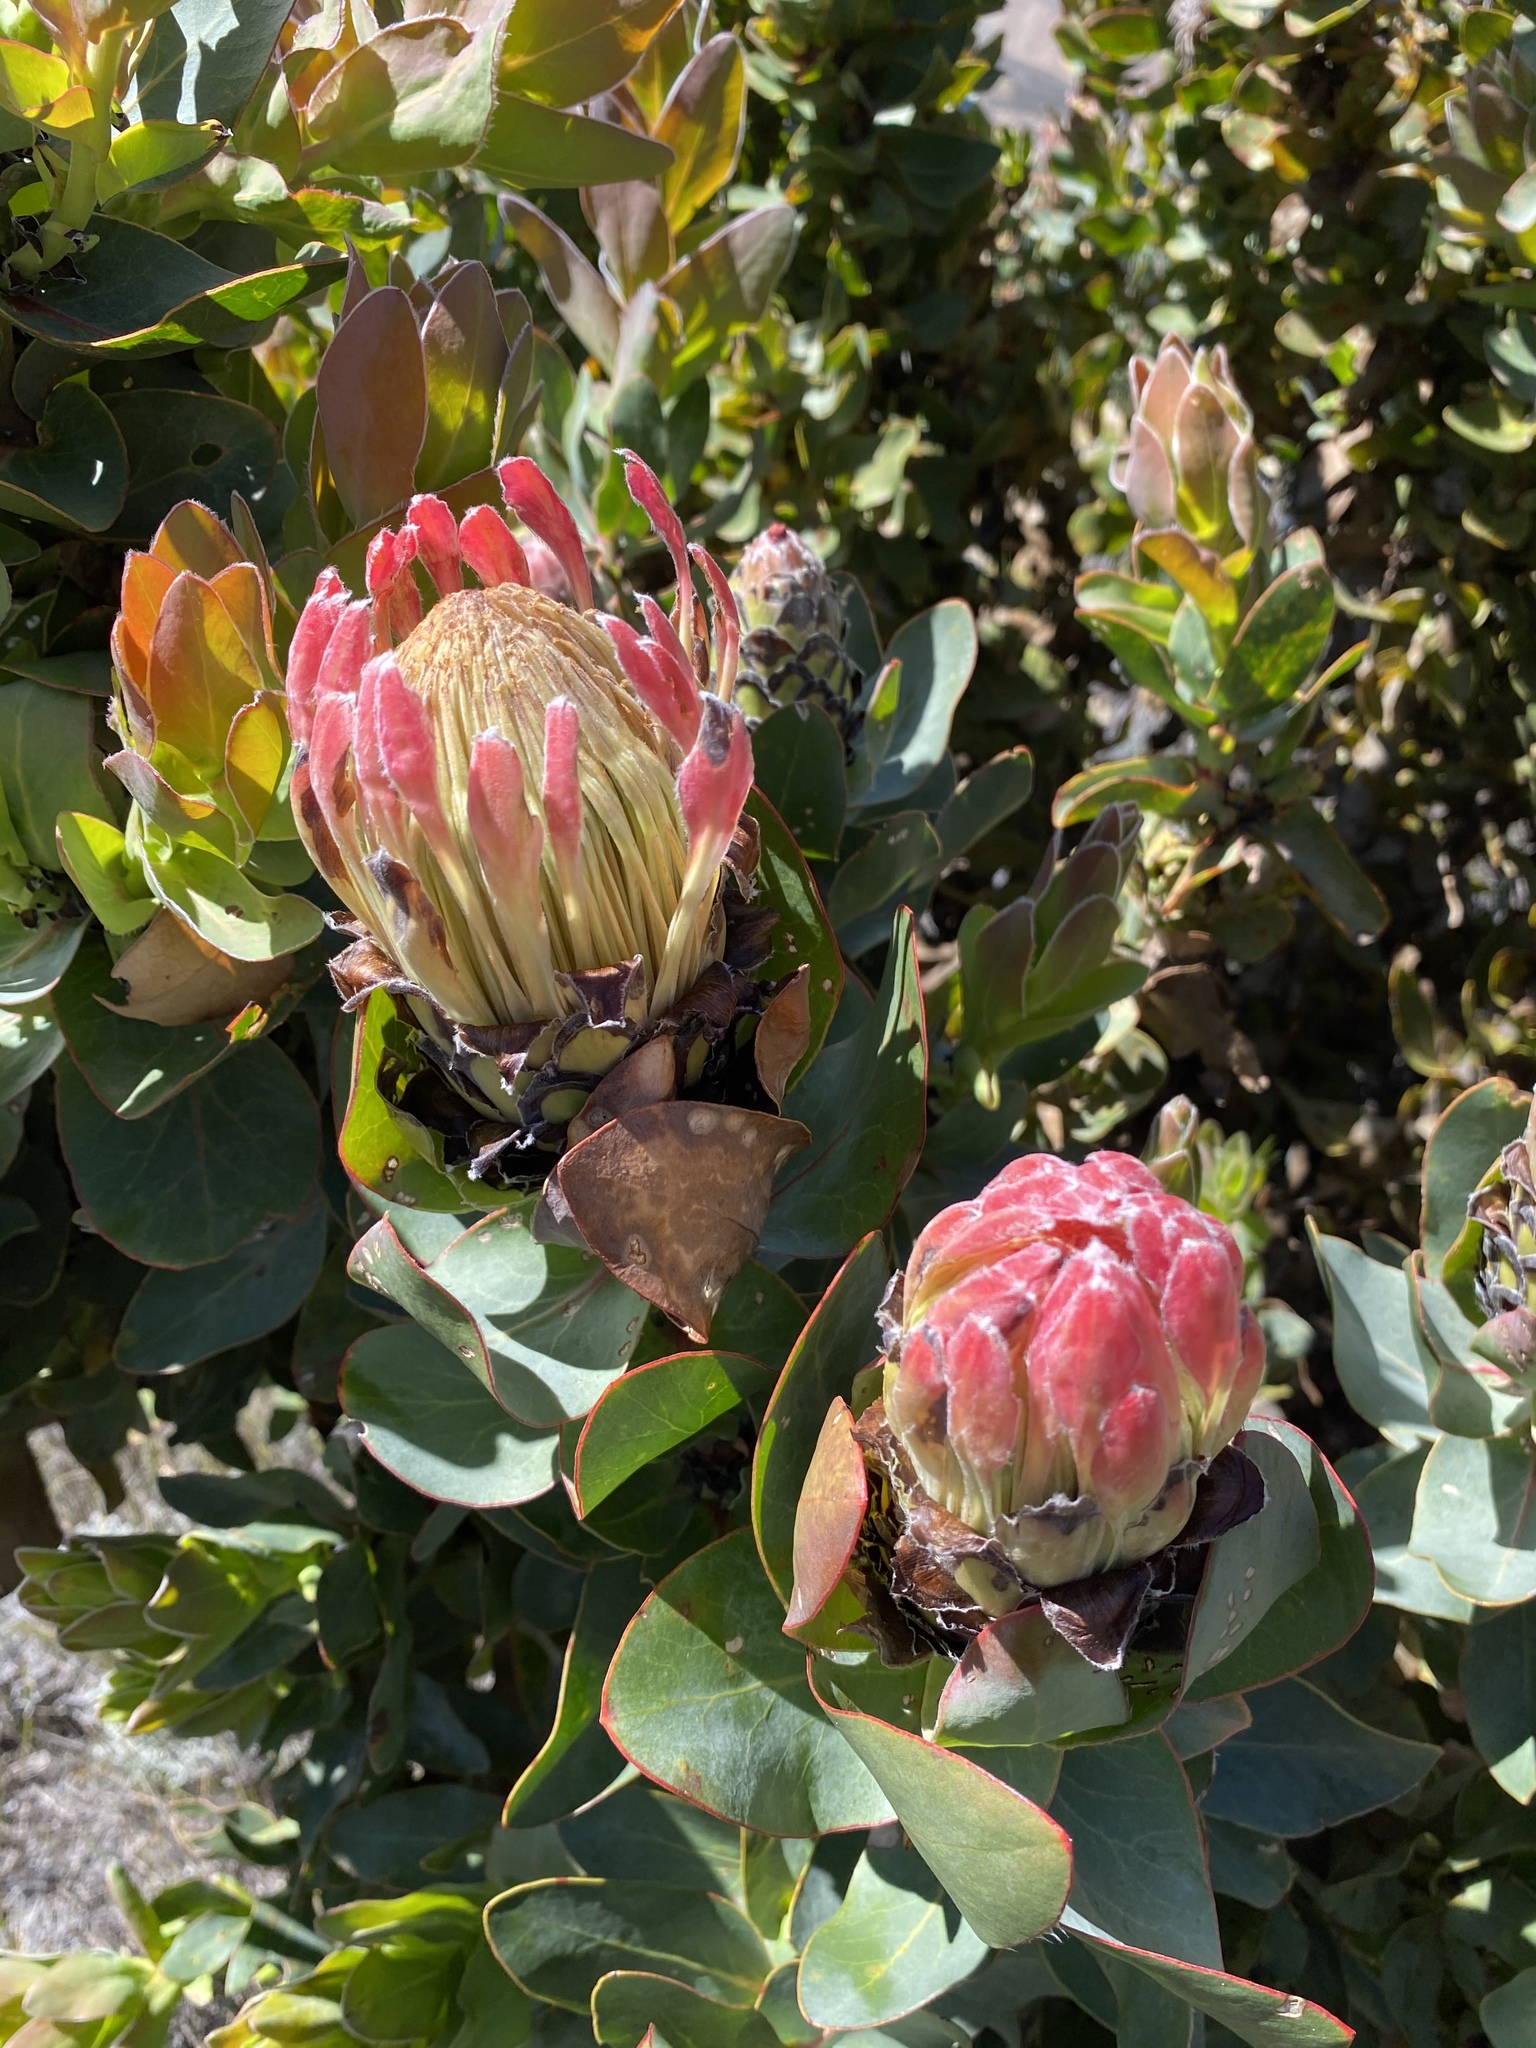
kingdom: Plantae
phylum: Tracheophyta
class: Magnoliopsida
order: Proteales
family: Proteaceae
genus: Protea
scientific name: Protea eximia
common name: Broad-leaved sugarbush
